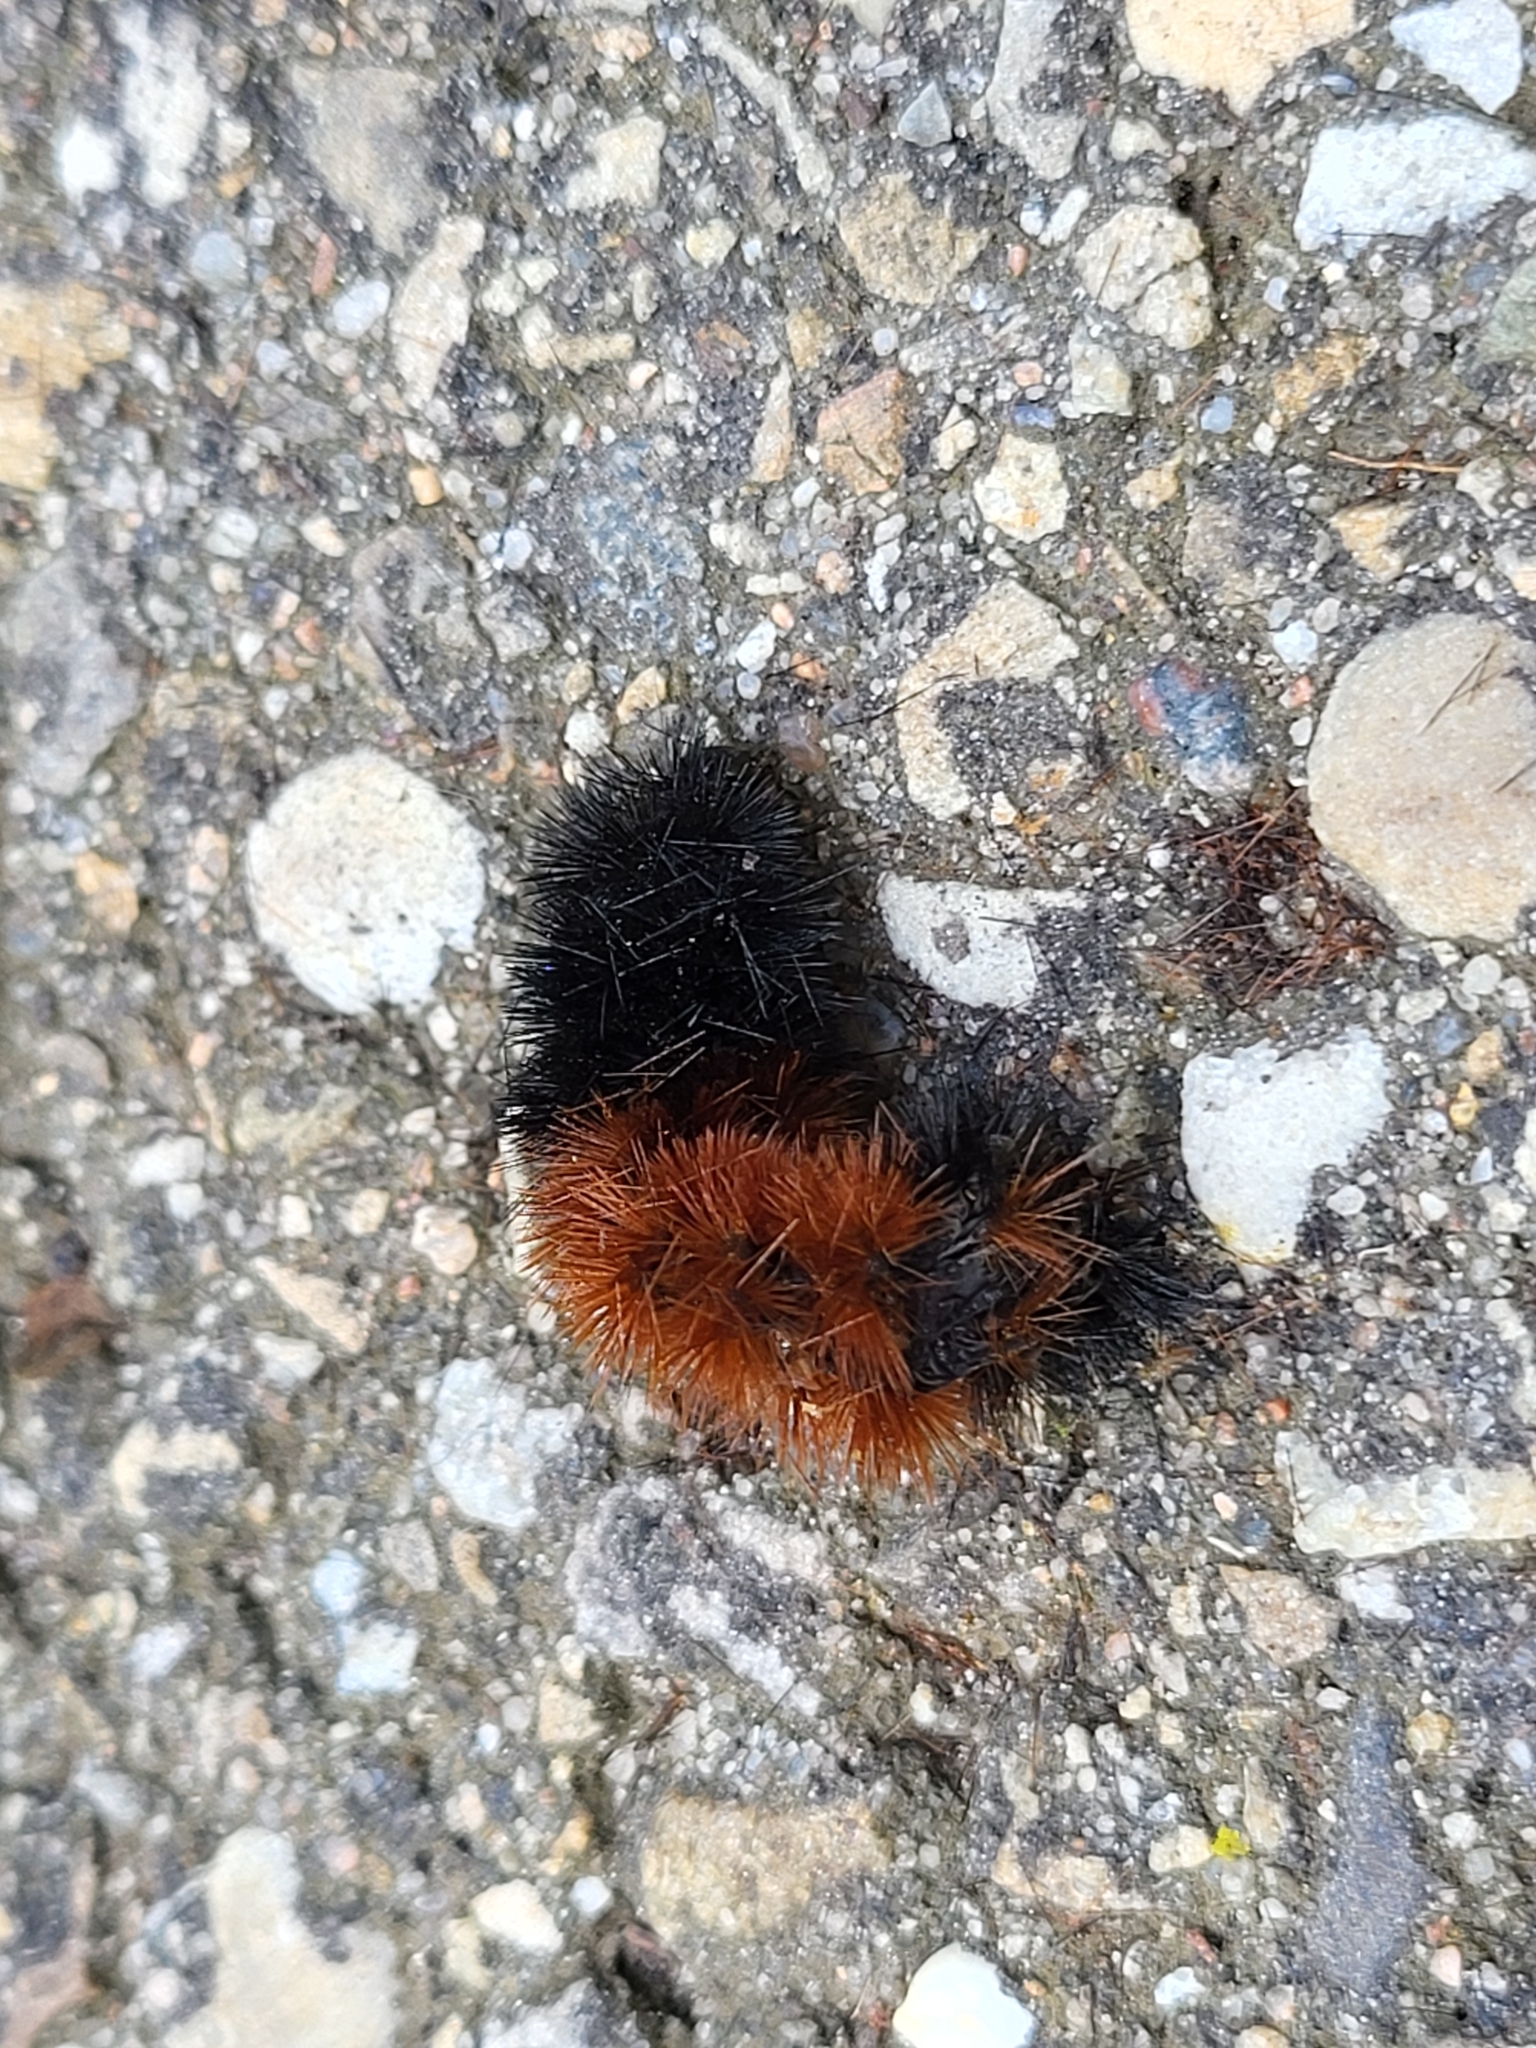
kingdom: Animalia
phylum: Arthropoda
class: Insecta
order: Lepidoptera
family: Erebidae
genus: Pyrrharctia
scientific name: Pyrrharctia isabella
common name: Isabella tiger moth
